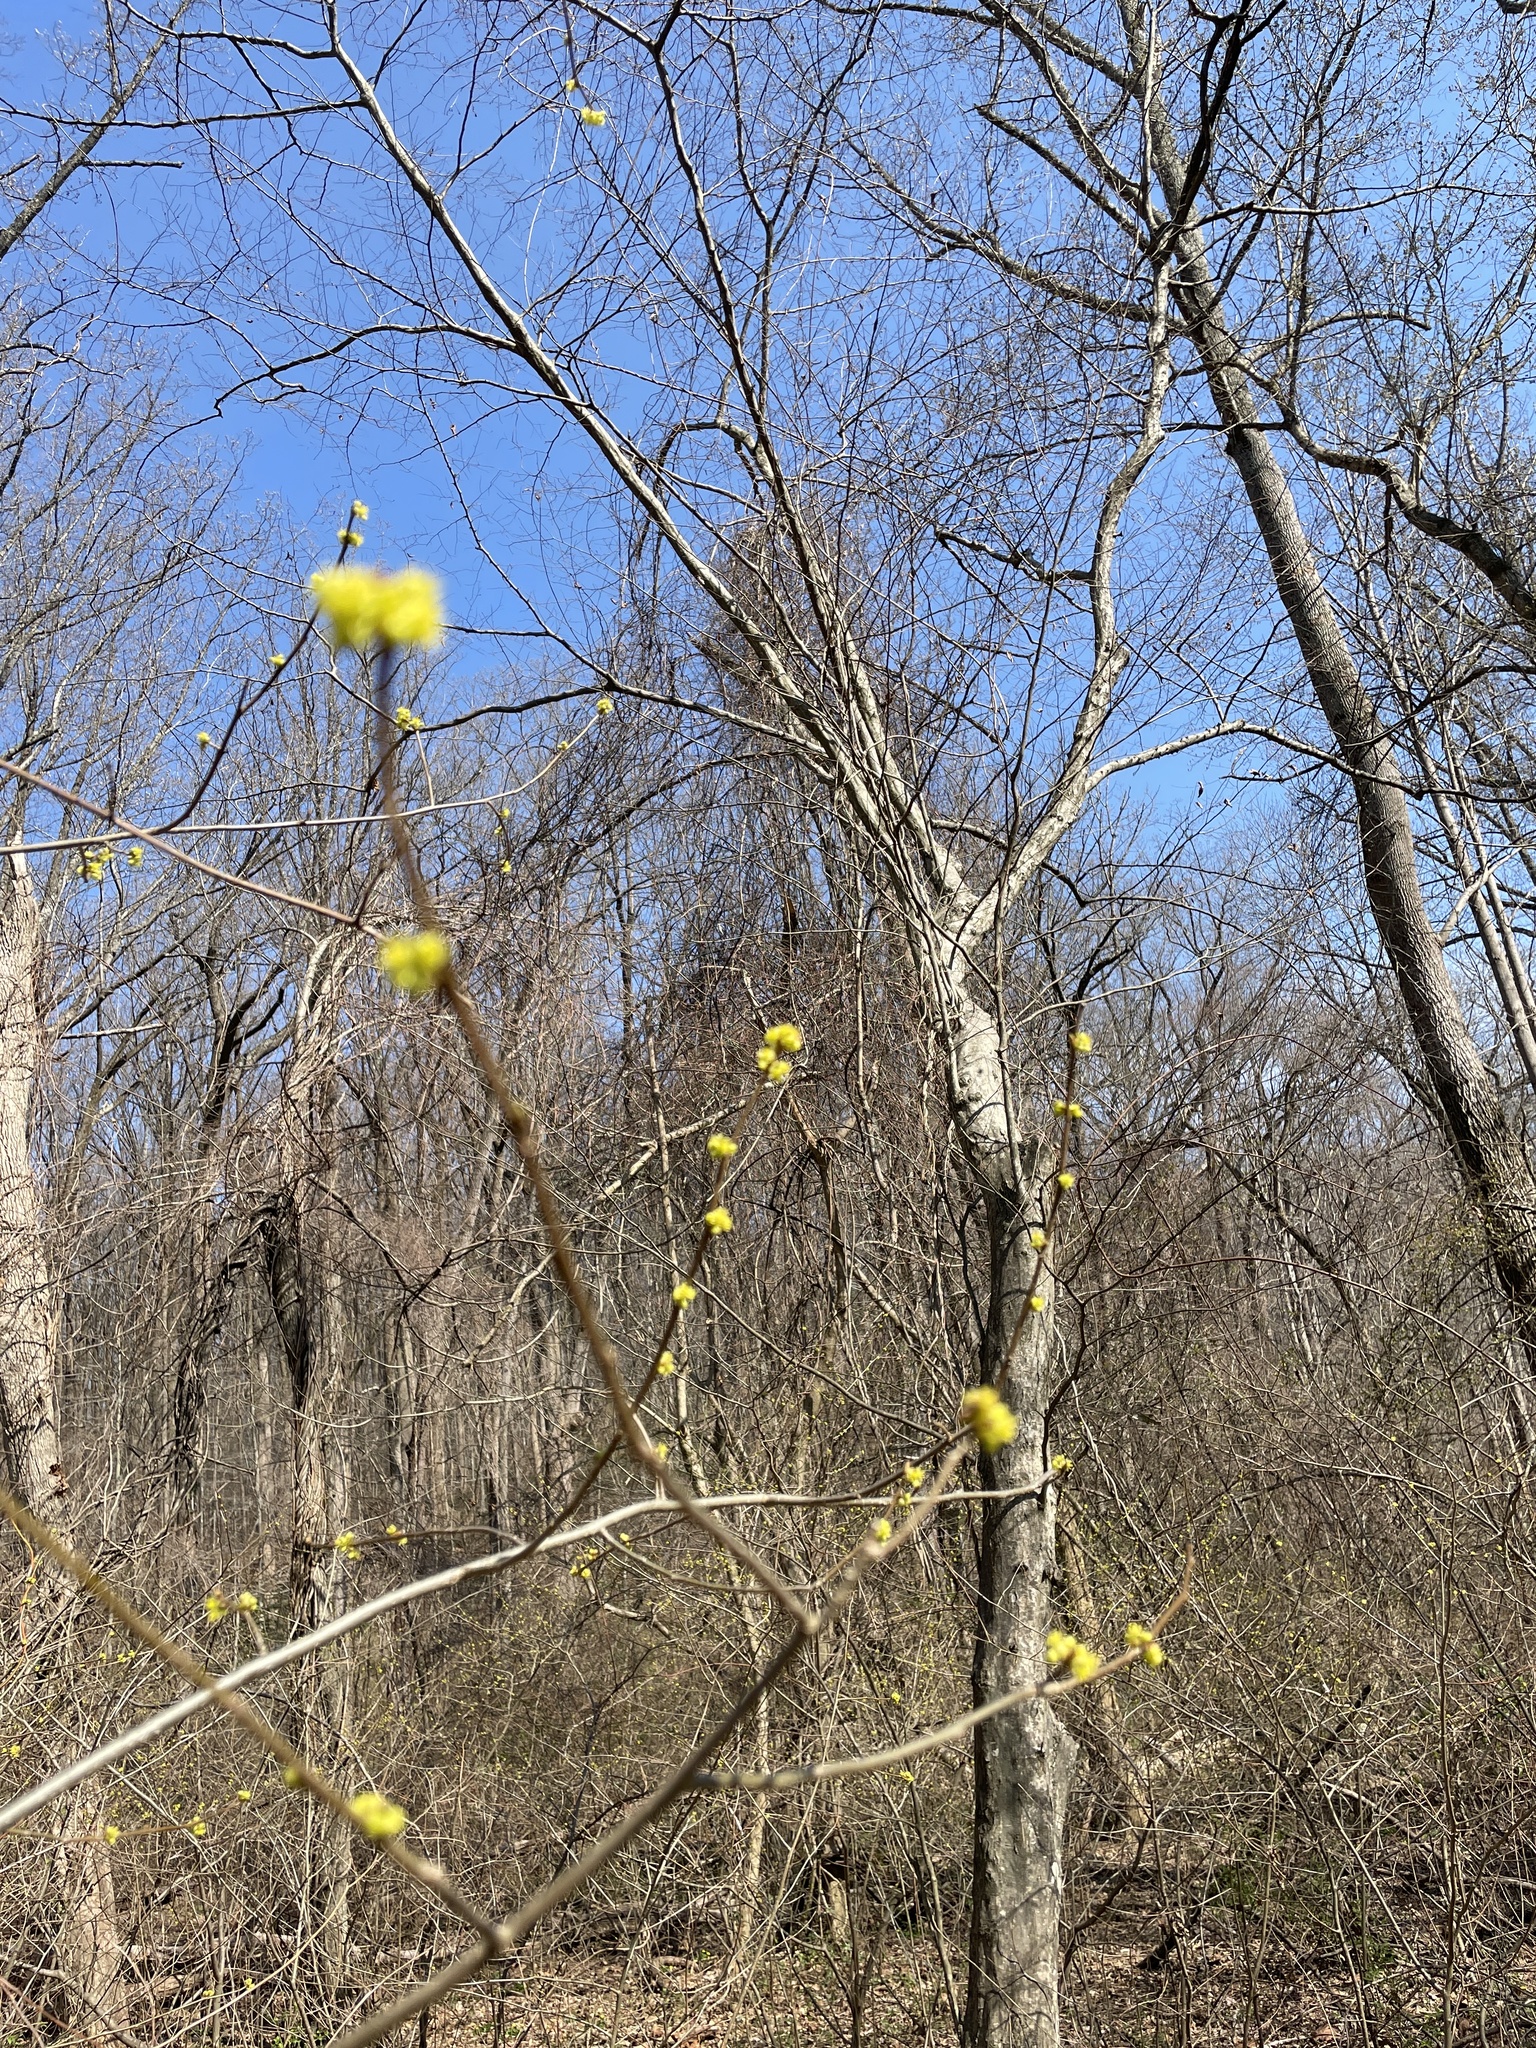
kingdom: Plantae
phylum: Tracheophyta
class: Magnoliopsida
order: Laurales
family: Lauraceae
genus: Lindera
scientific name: Lindera benzoin
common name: Spicebush
